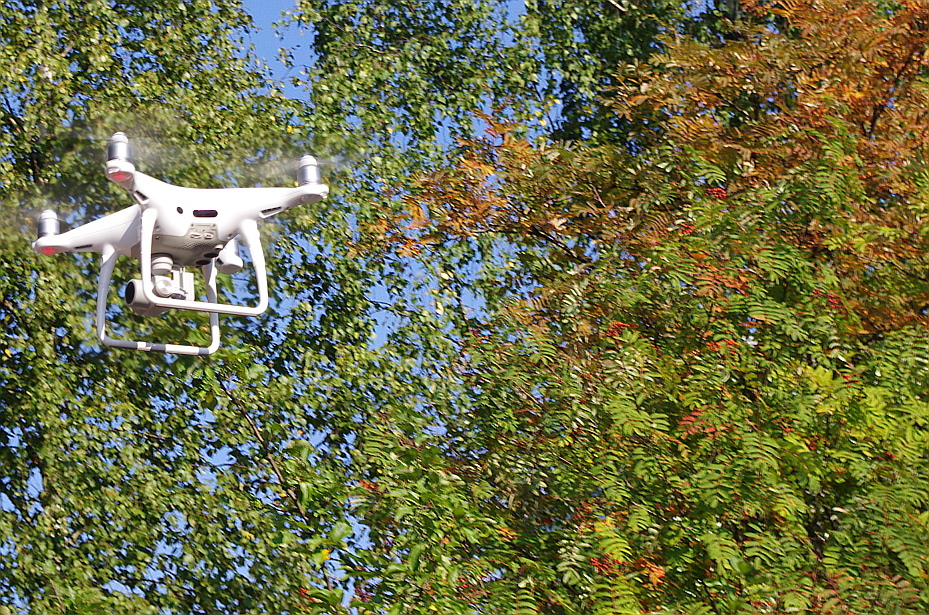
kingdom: Plantae
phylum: Tracheophyta
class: Magnoliopsida
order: Rosales
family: Rosaceae
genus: Sorbus
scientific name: Sorbus aucuparia
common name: Rowan
